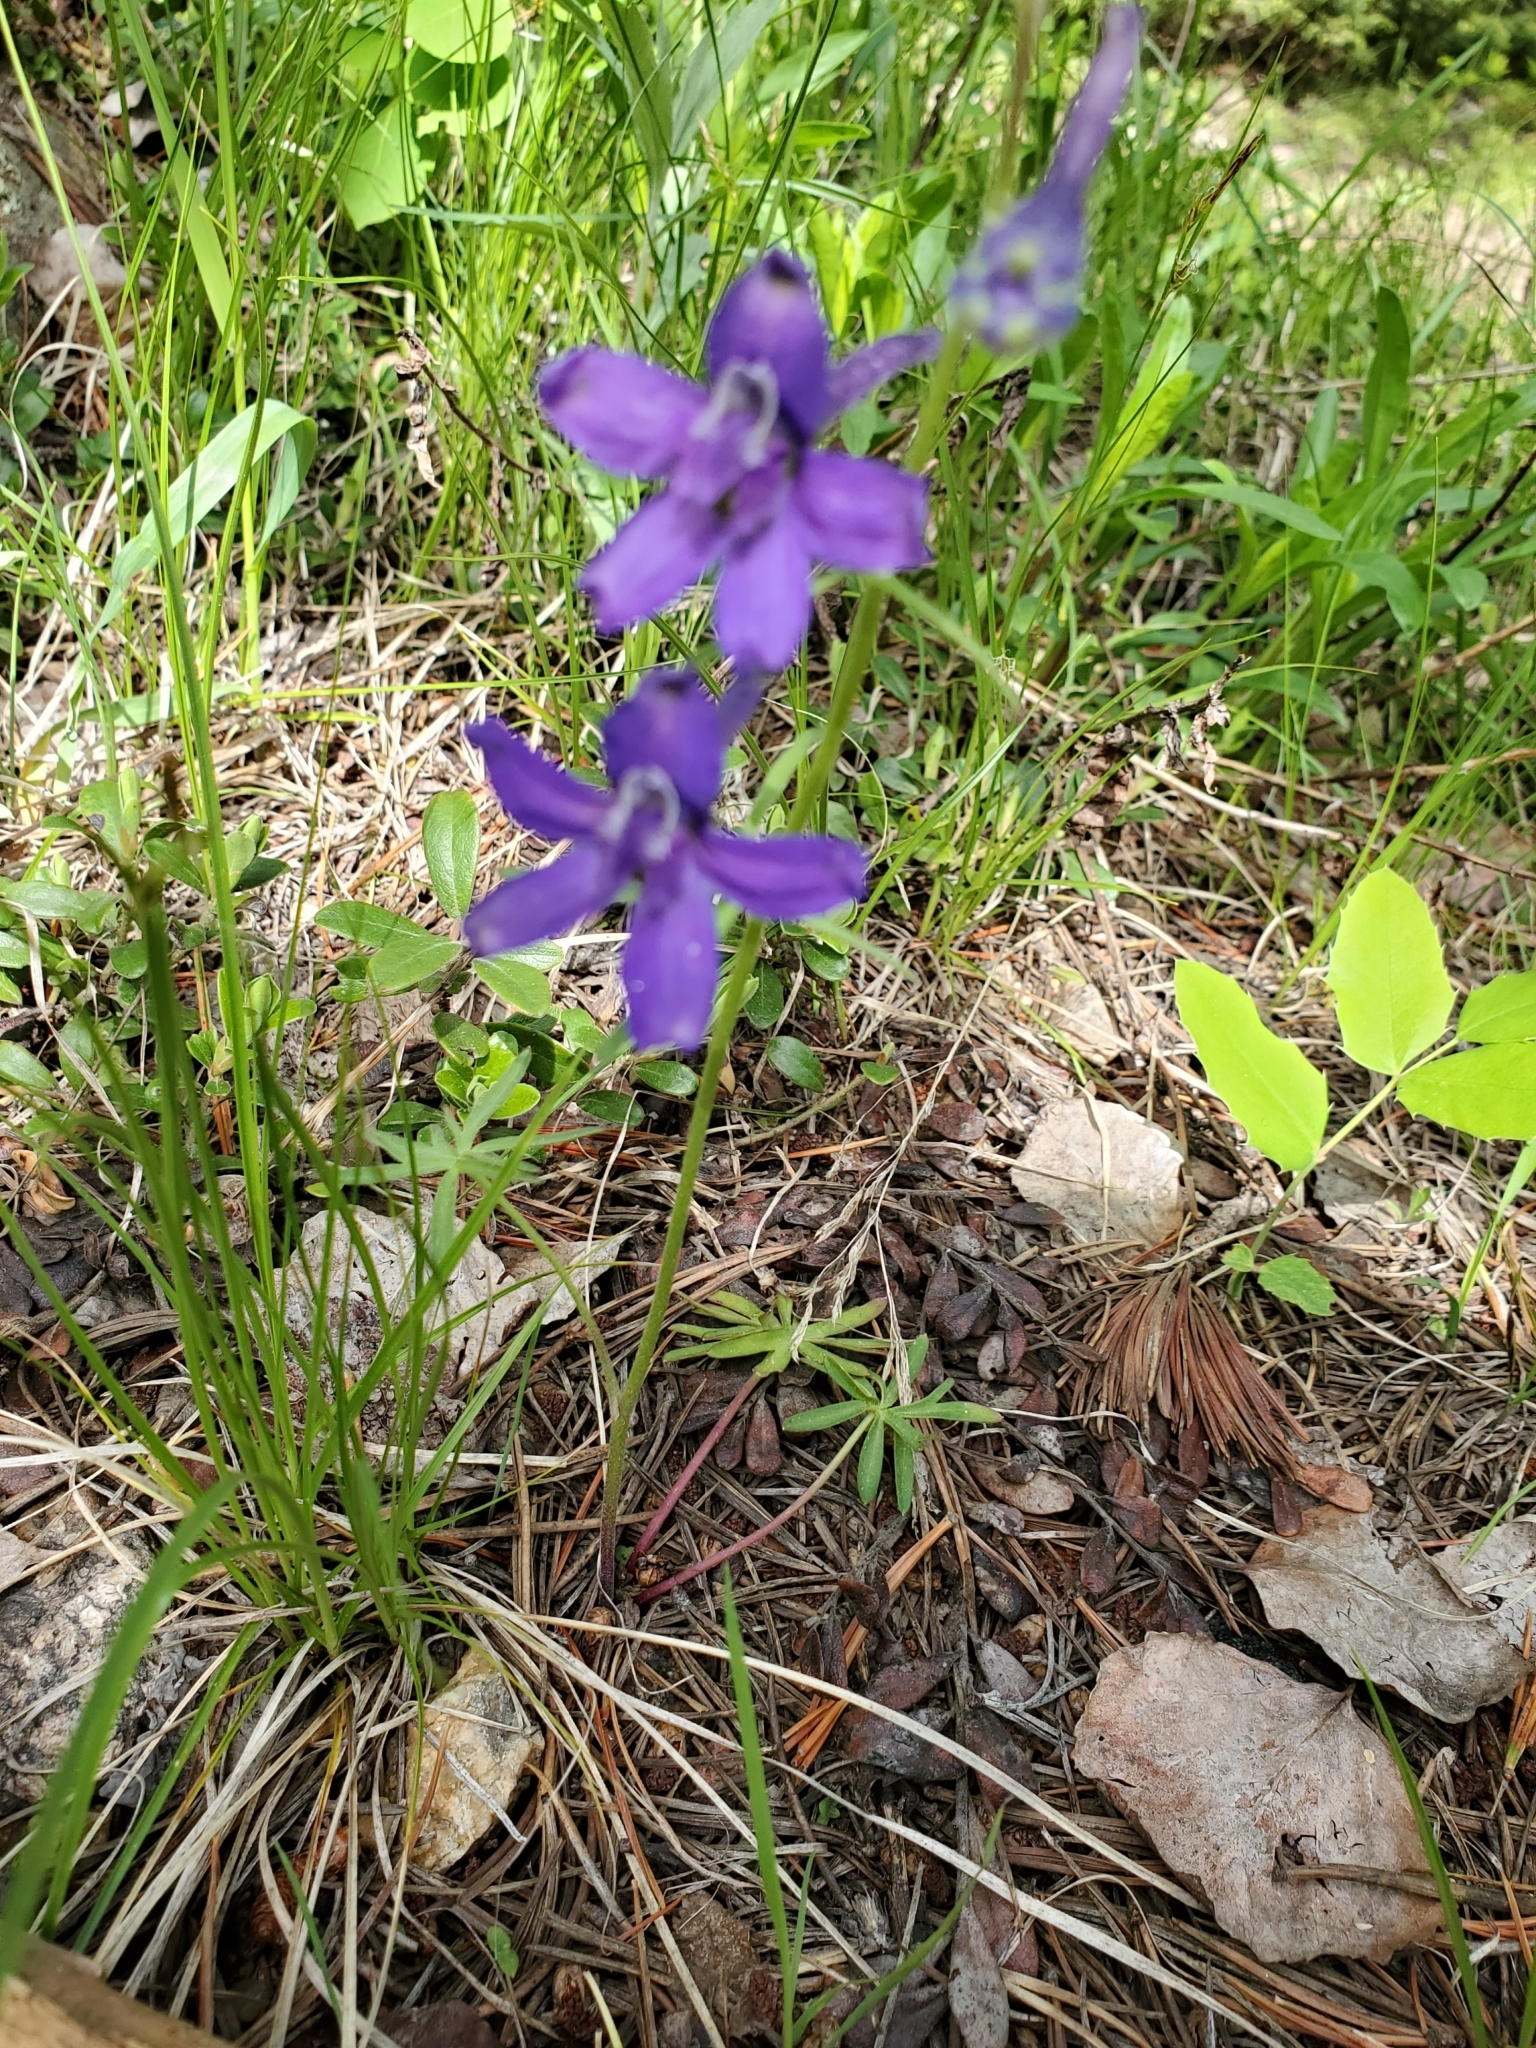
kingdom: Plantae
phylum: Tracheophyta
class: Magnoliopsida
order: Ranunculales
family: Ranunculaceae
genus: Delphinium
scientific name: Delphinium nuttallianum
